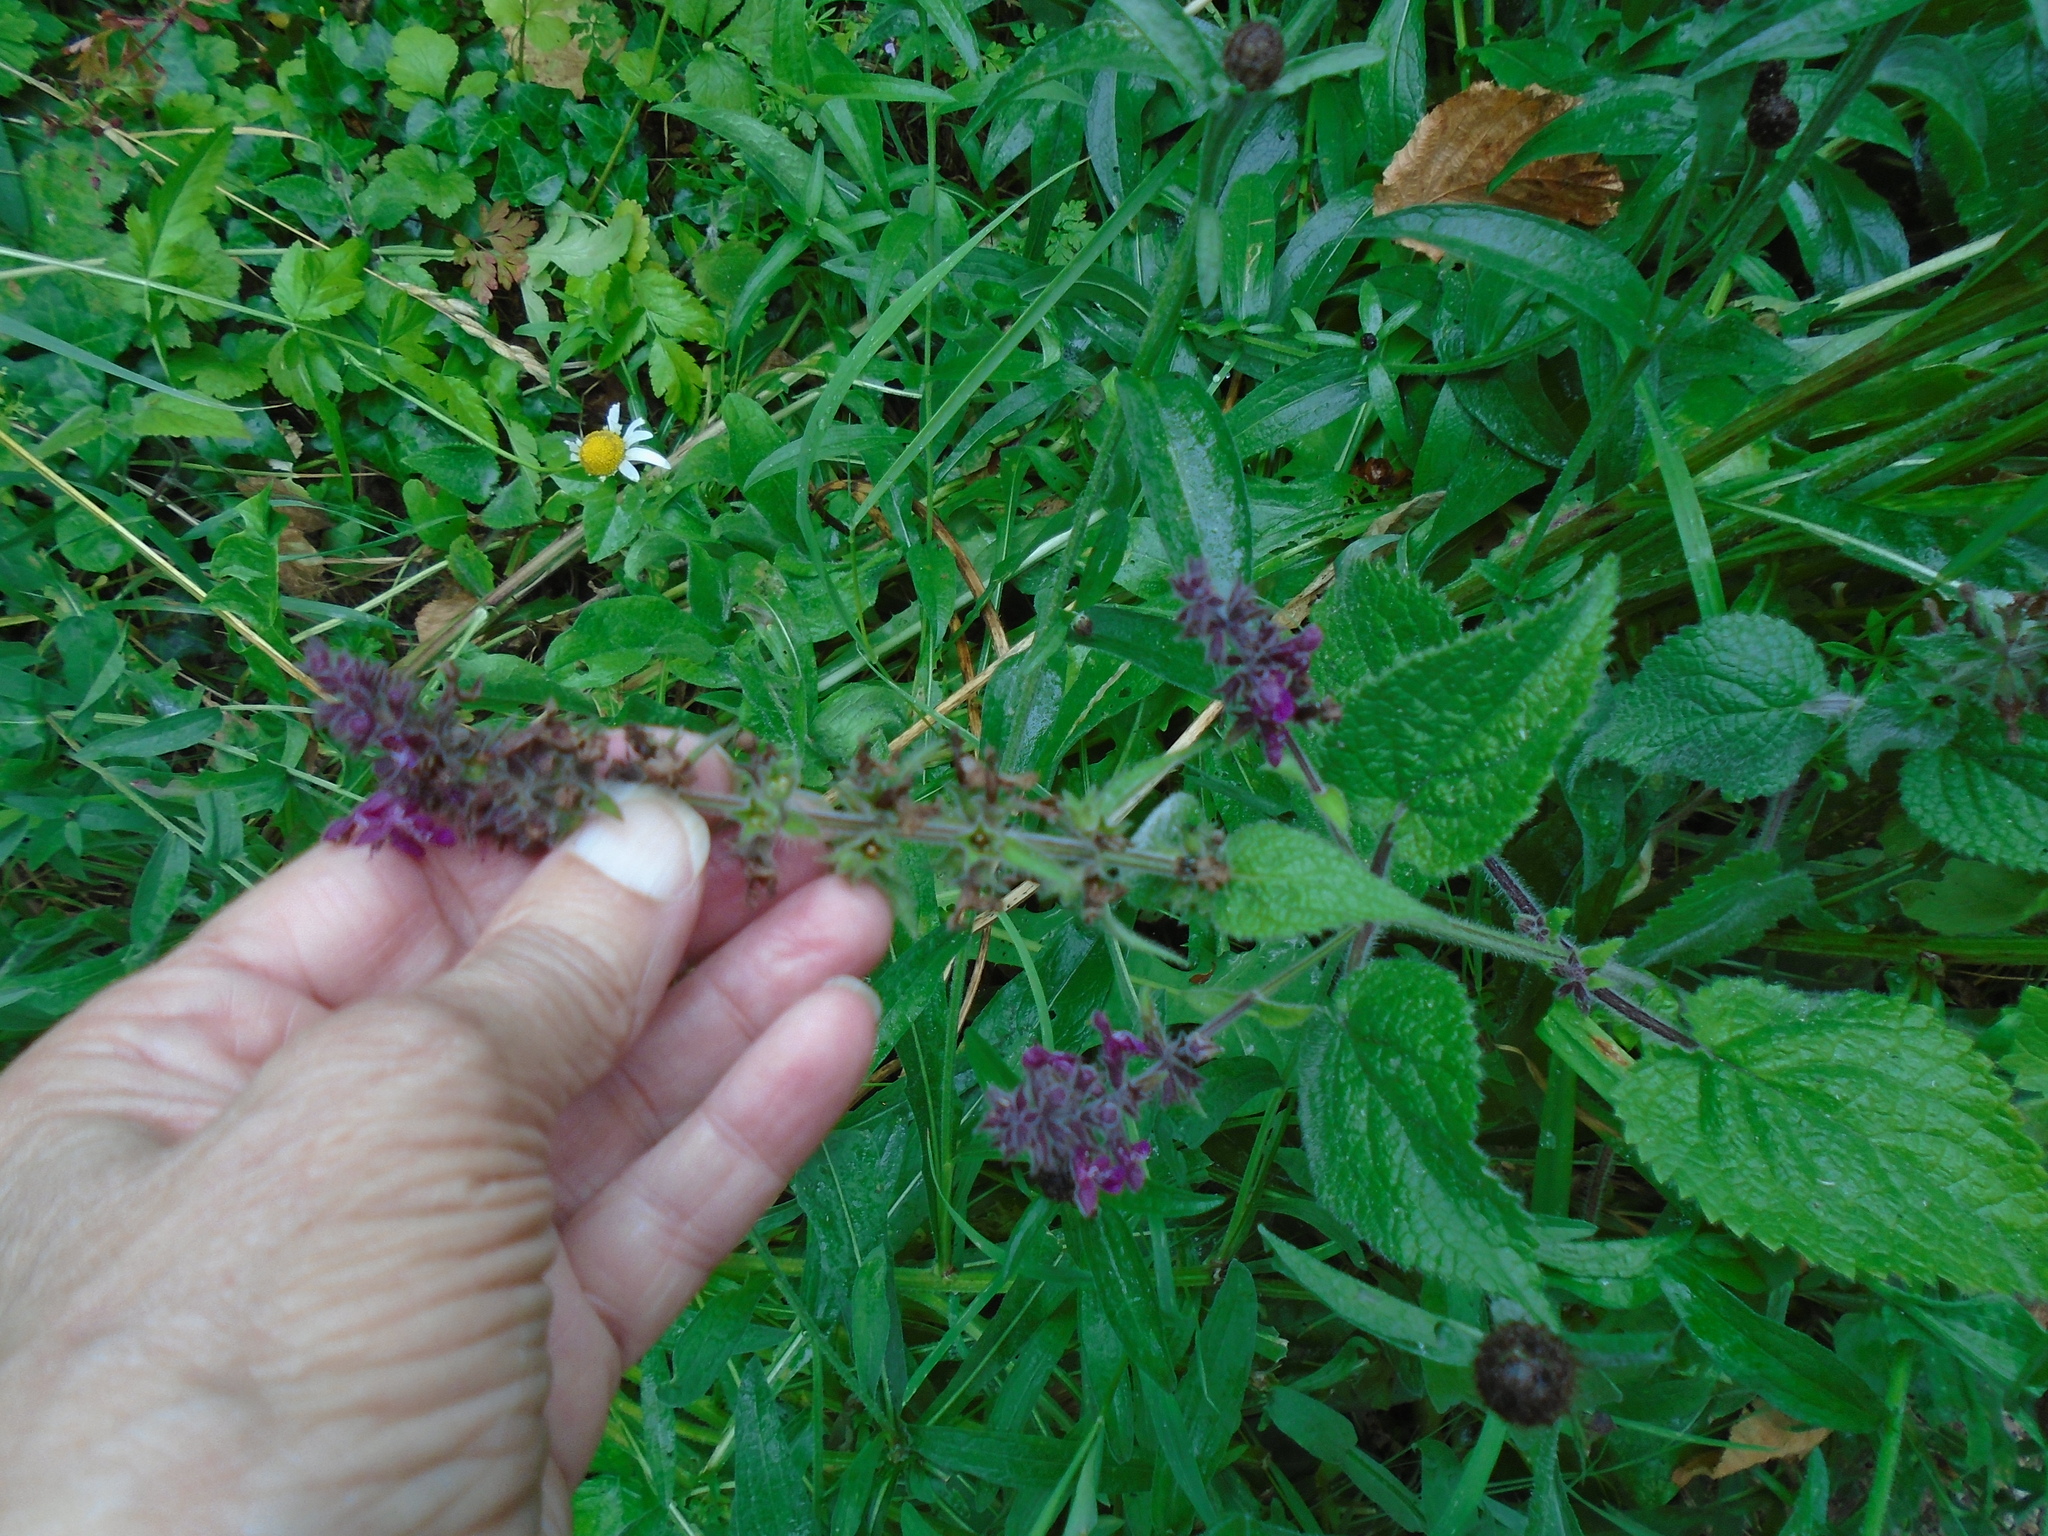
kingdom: Plantae
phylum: Tracheophyta
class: Magnoliopsida
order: Lamiales
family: Lamiaceae
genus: Stachys
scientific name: Stachys sylvatica
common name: Hedge woundwort
